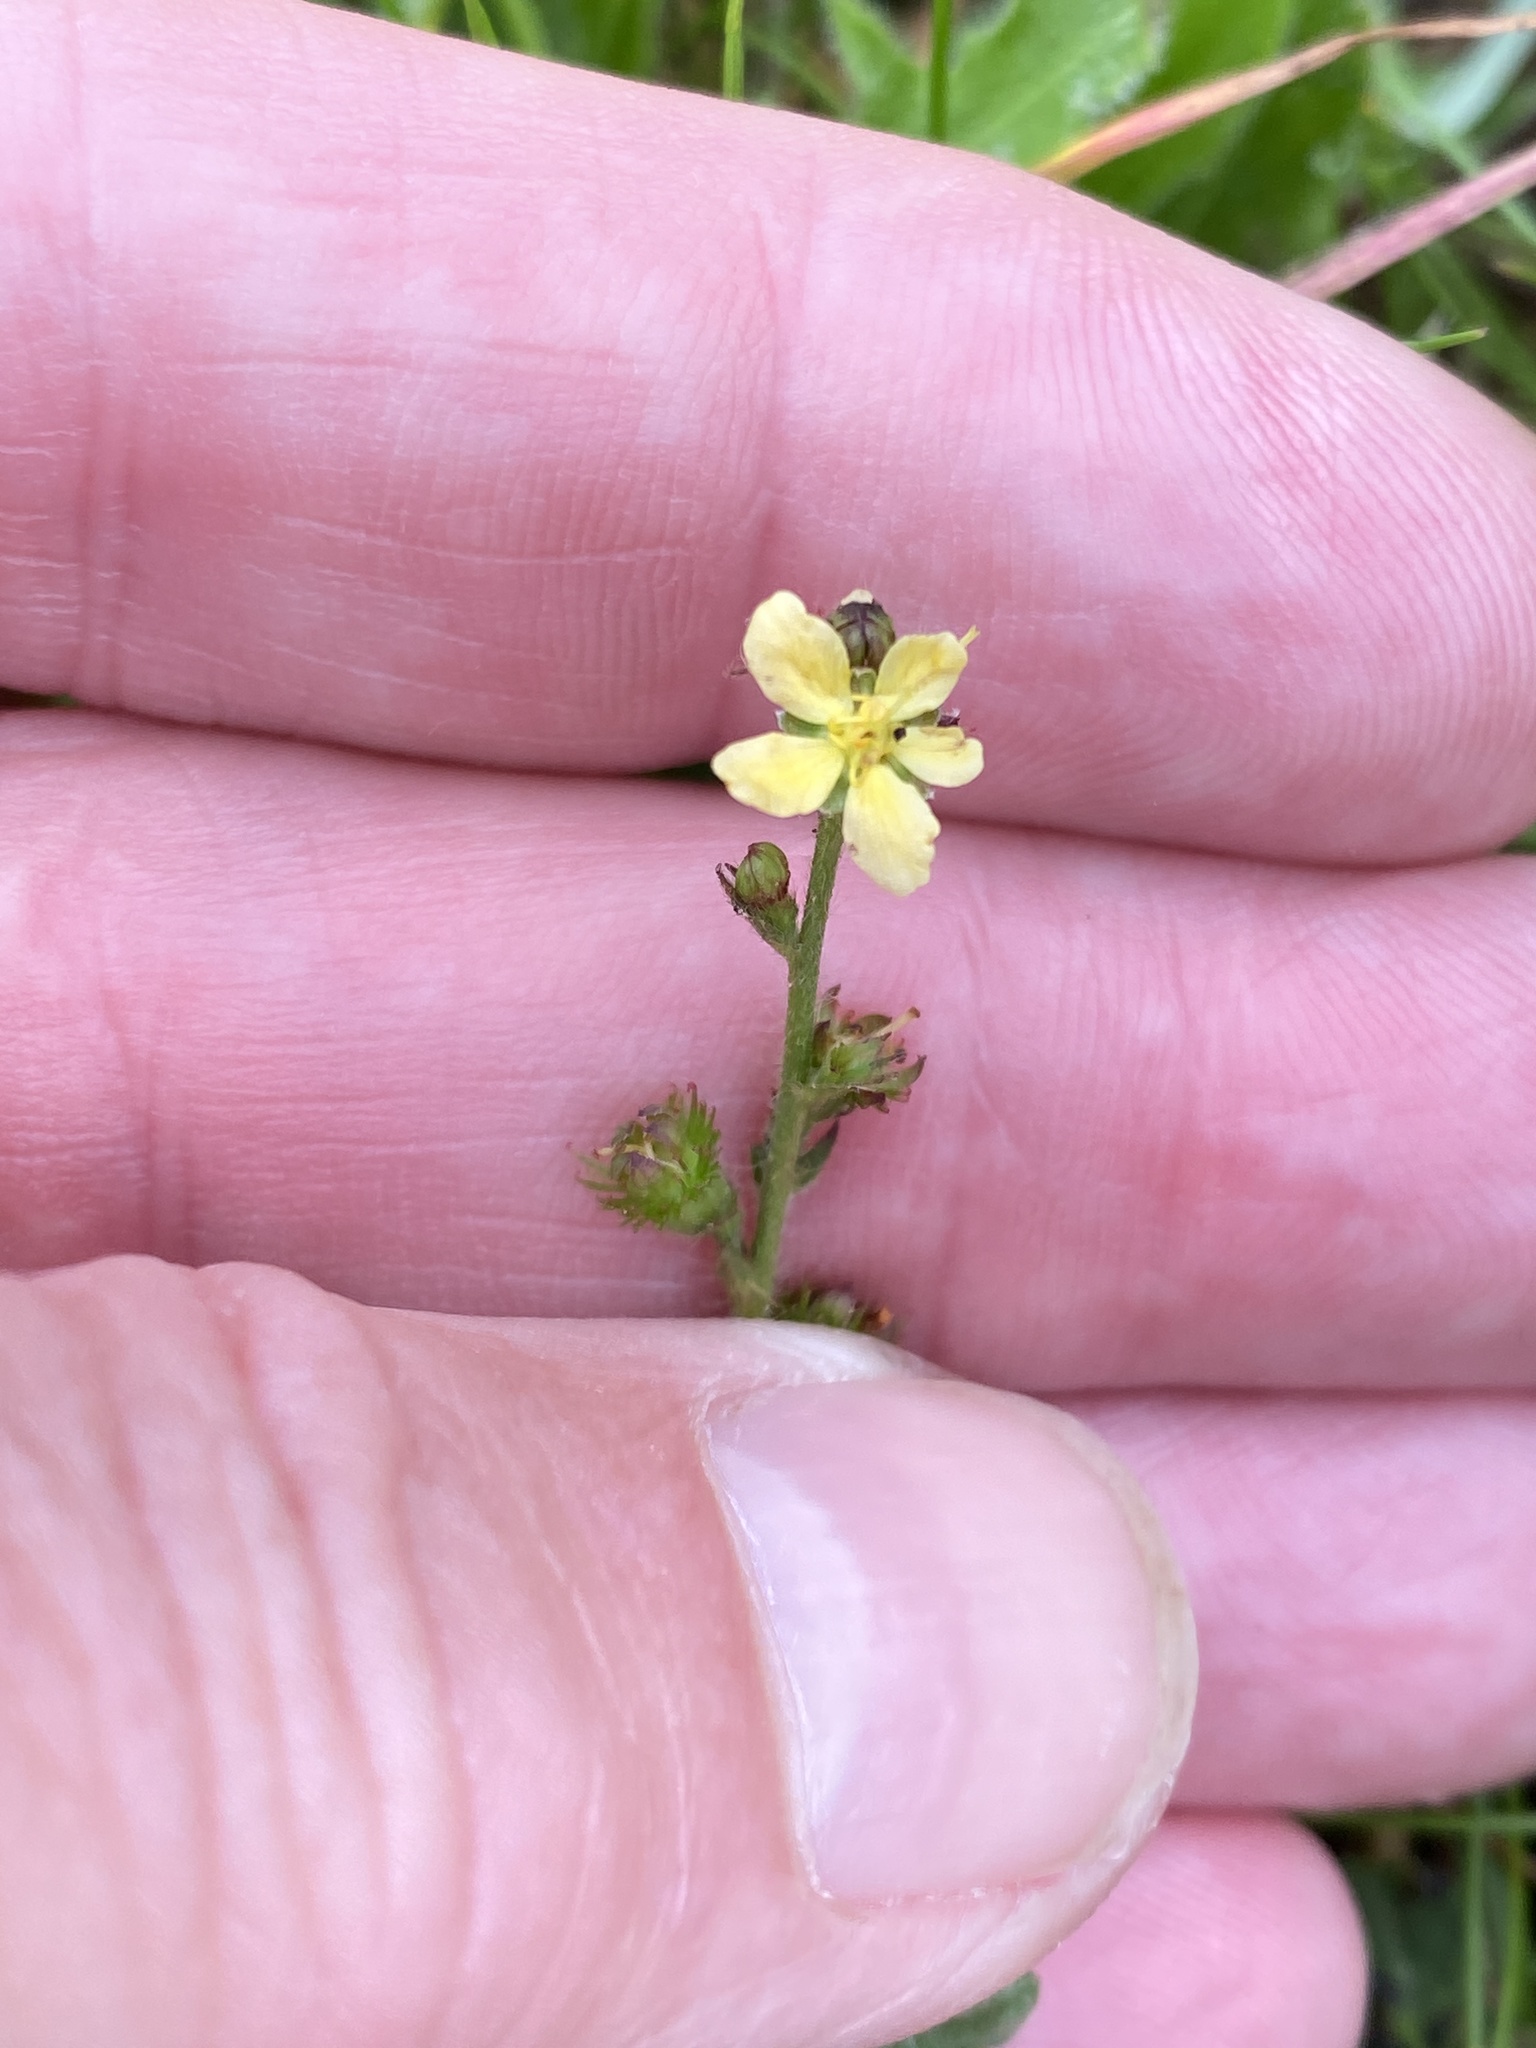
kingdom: Plantae
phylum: Tracheophyta
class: Magnoliopsida
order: Rosales
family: Rosaceae
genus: Agrimonia
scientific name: Agrimonia eupatoria
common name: Agrimony
